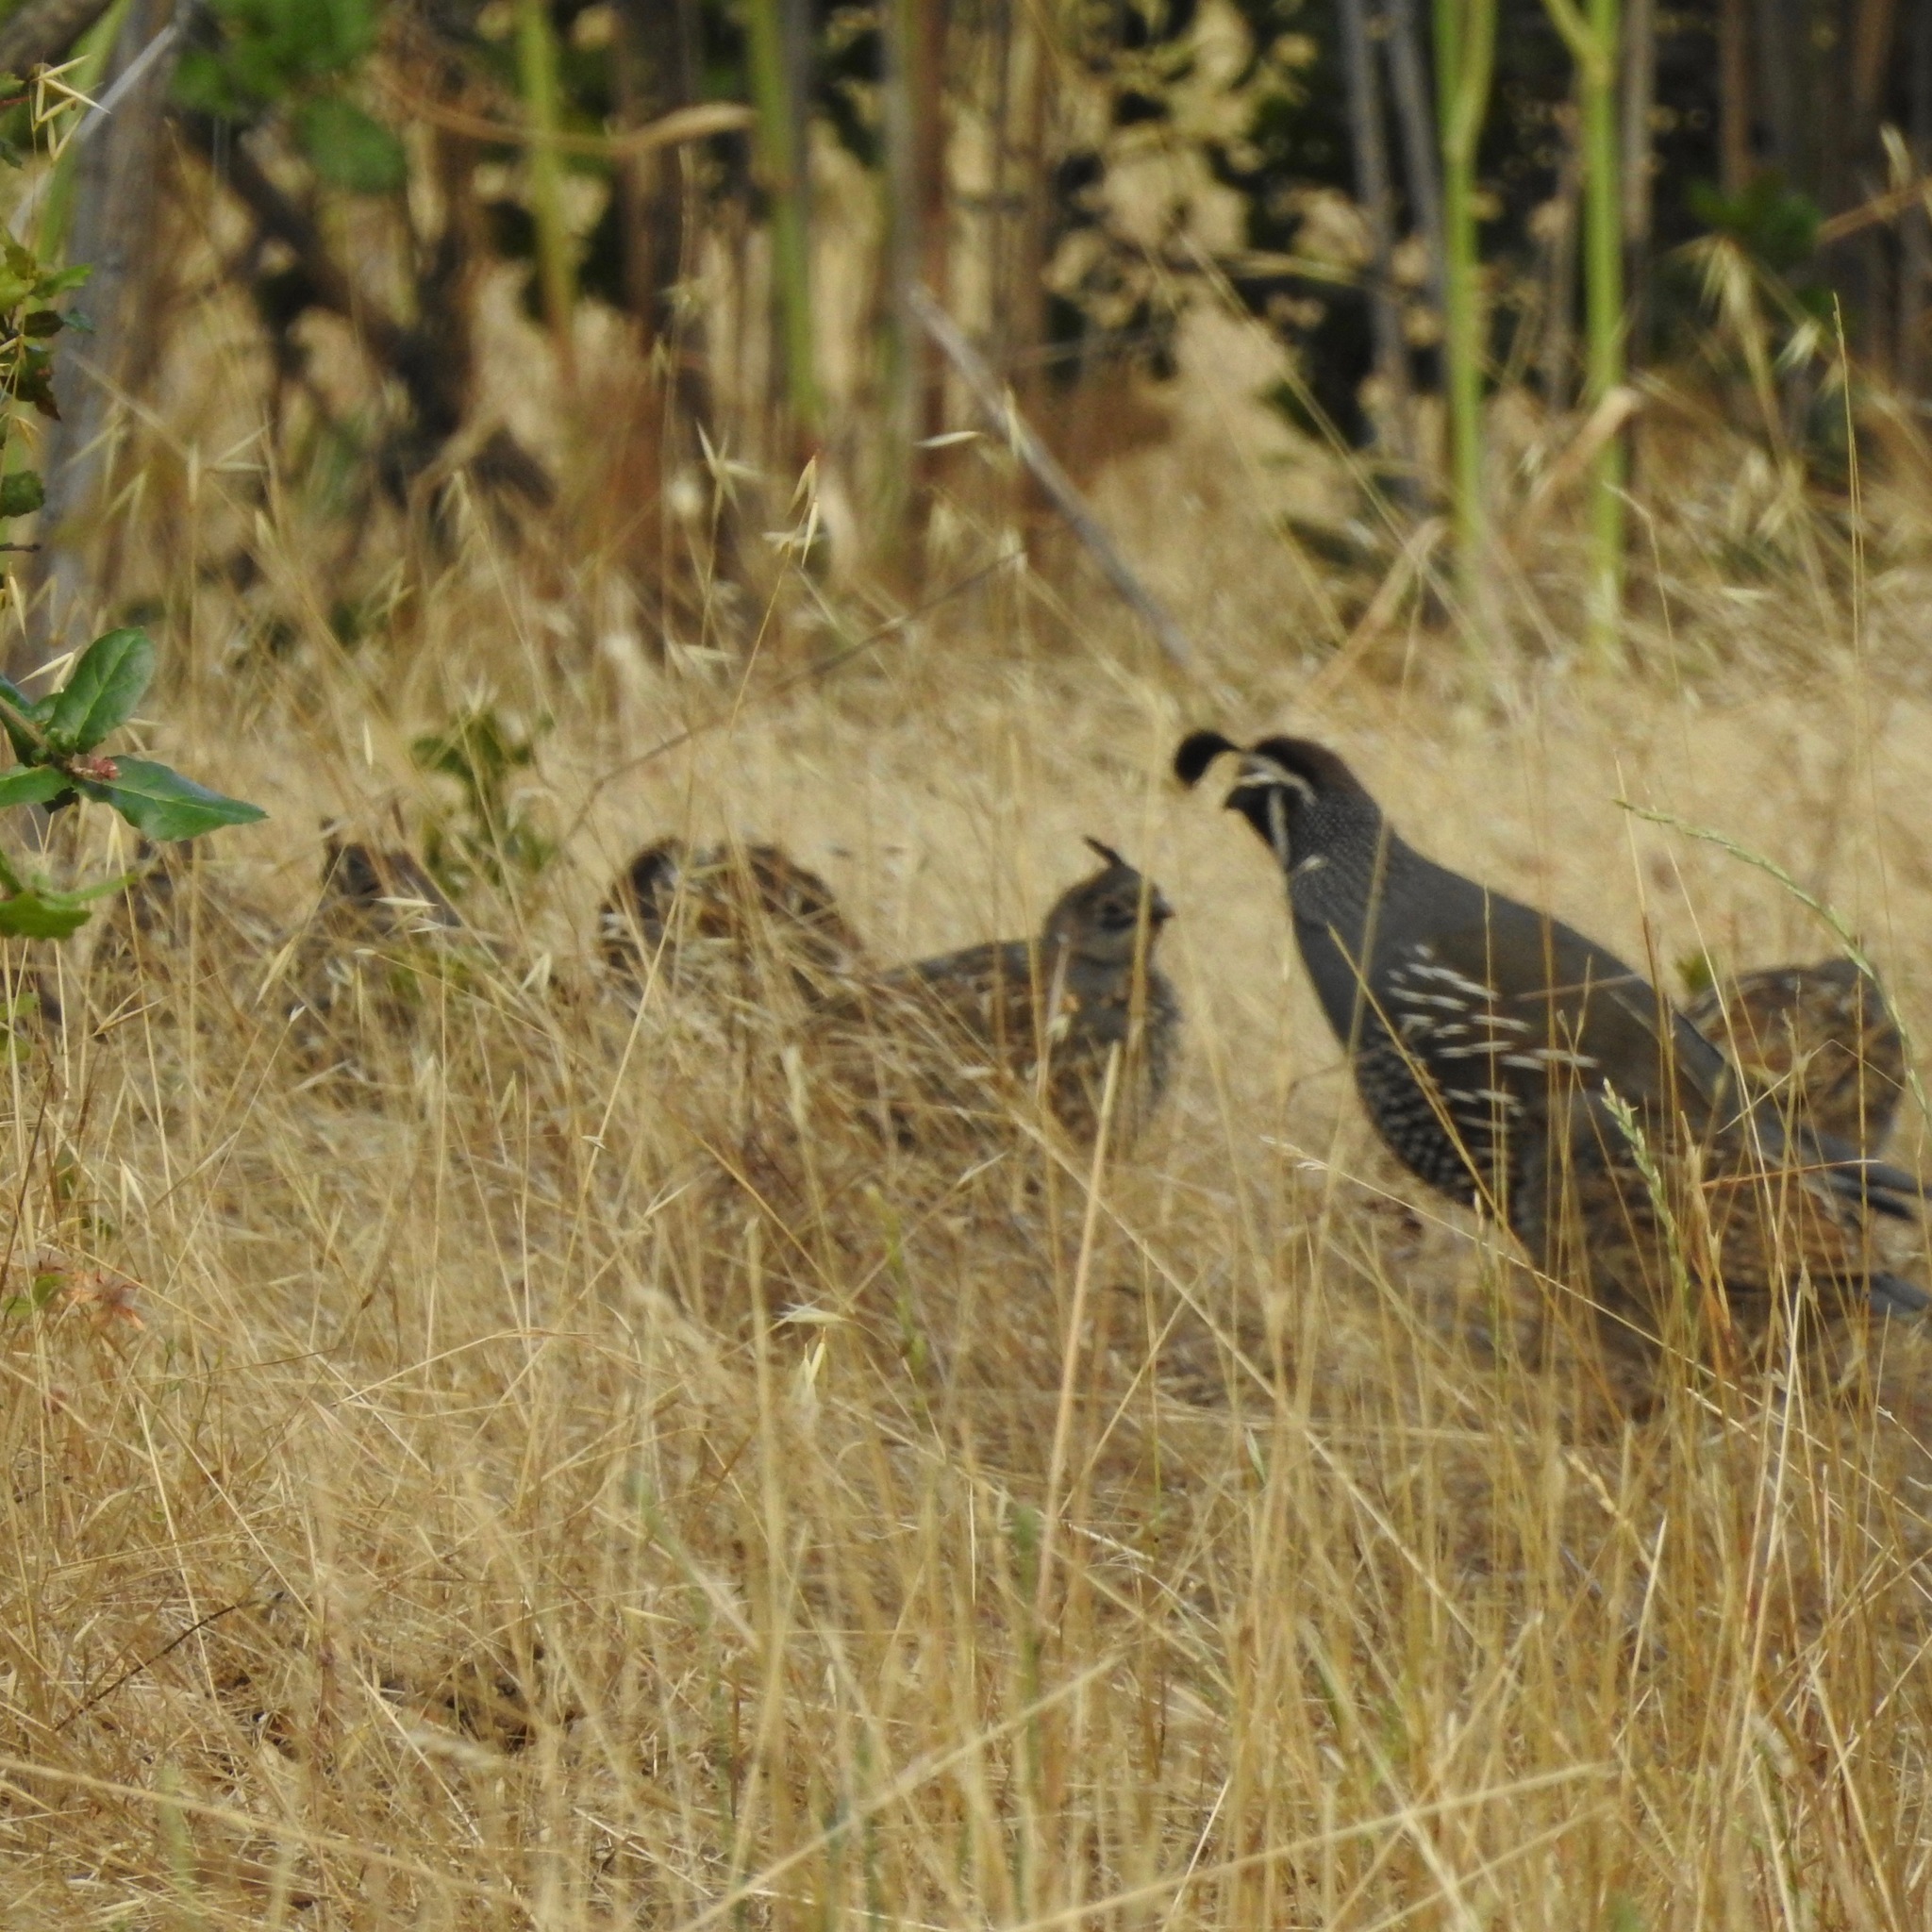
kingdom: Animalia
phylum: Chordata
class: Aves
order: Galliformes
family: Odontophoridae
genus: Callipepla
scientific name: Callipepla californica
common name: California quail
